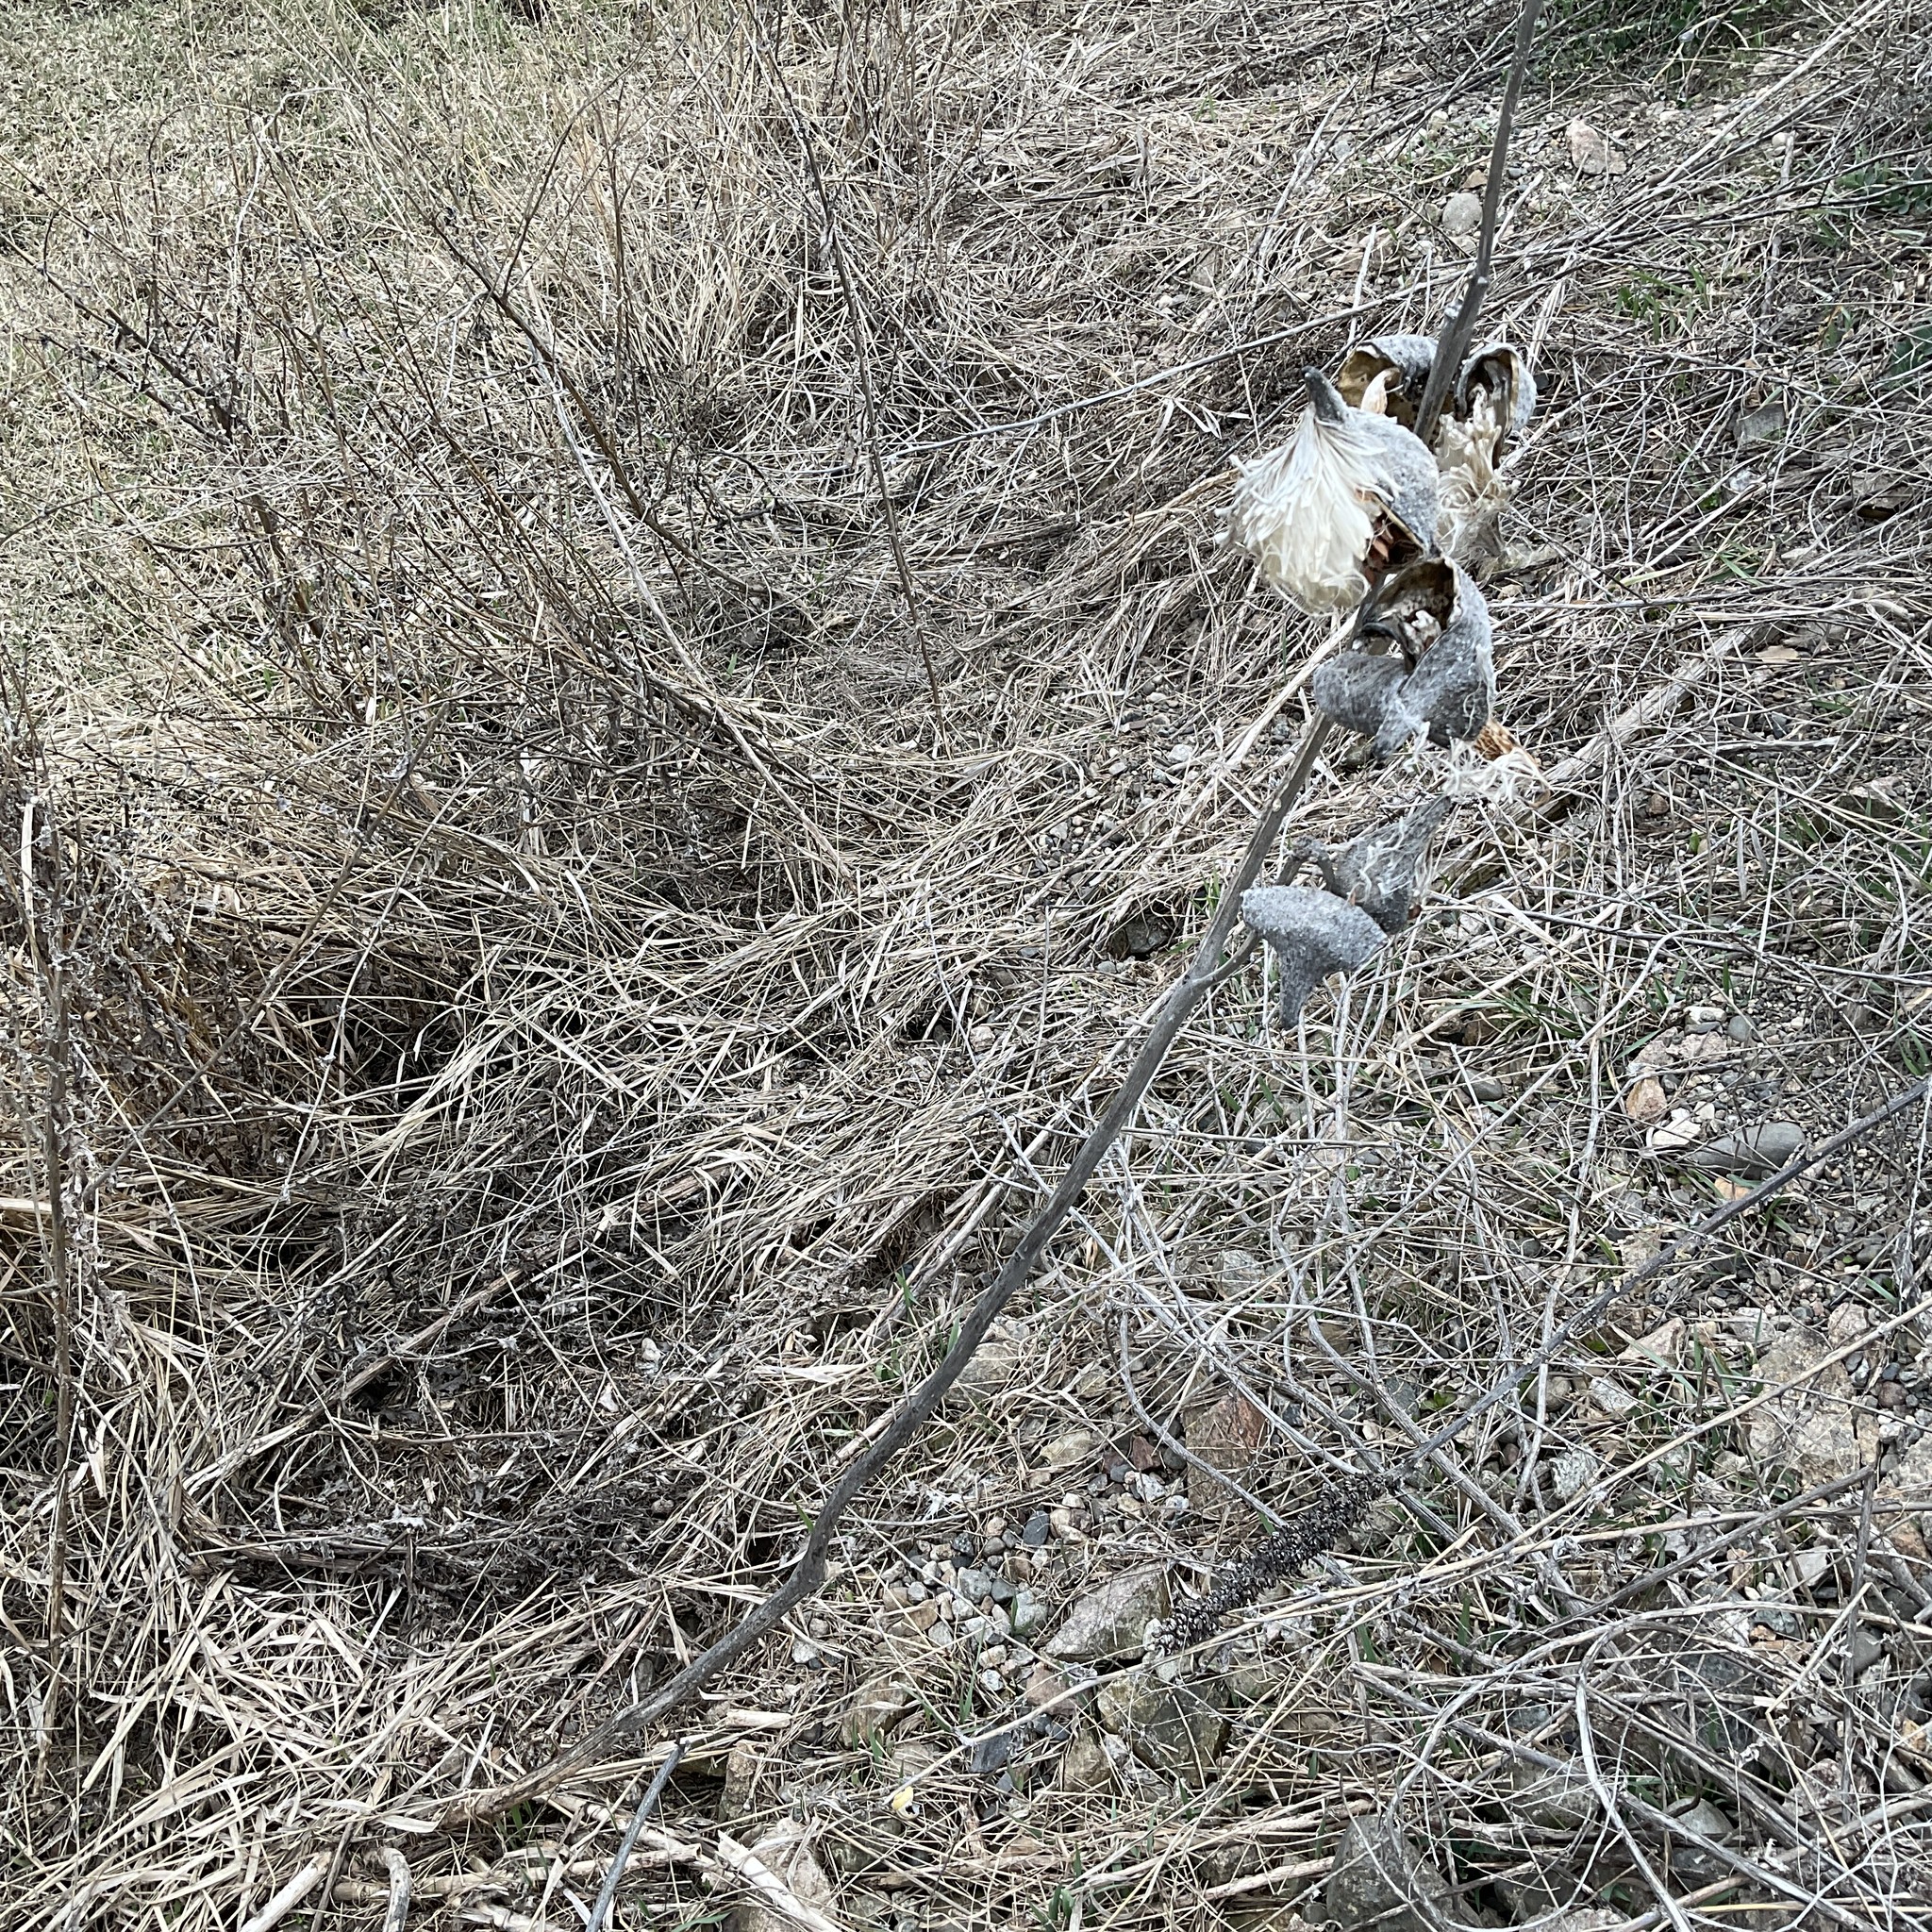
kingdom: Plantae
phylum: Tracheophyta
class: Magnoliopsida
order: Gentianales
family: Apocynaceae
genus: Asclepias
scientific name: Asclepias speciosa
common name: Showy milkweed
